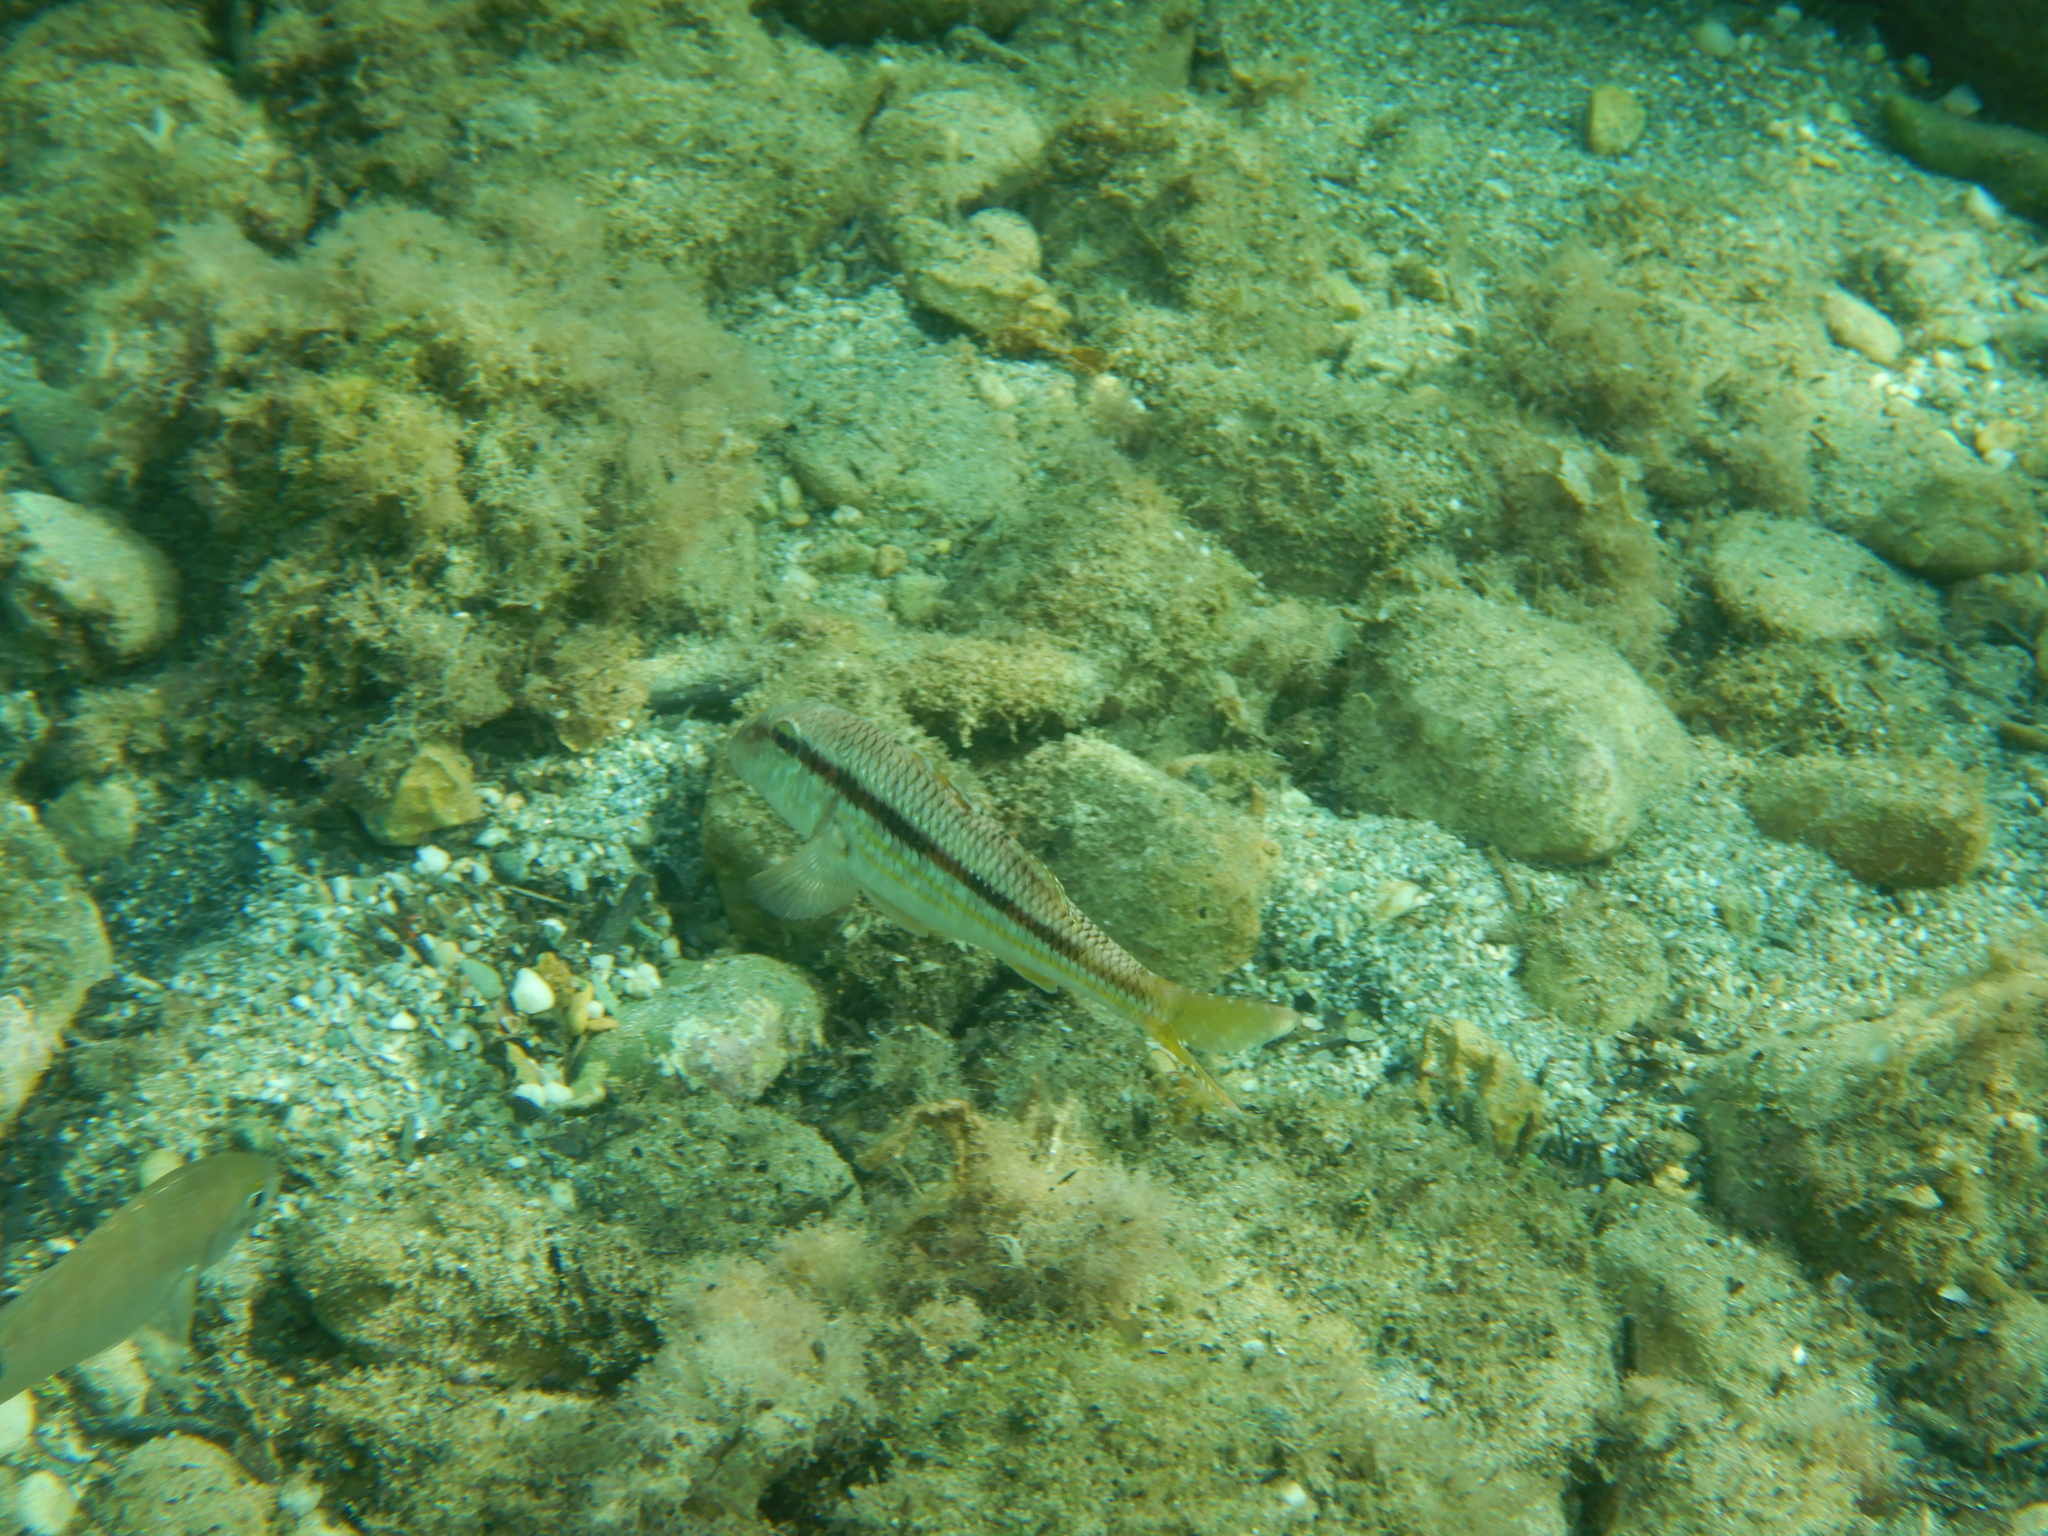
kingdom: Animalia
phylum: Chordata
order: Perciformes
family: Mullidae
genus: Mullus
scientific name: Mullus surmuletus
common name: Red mullet
